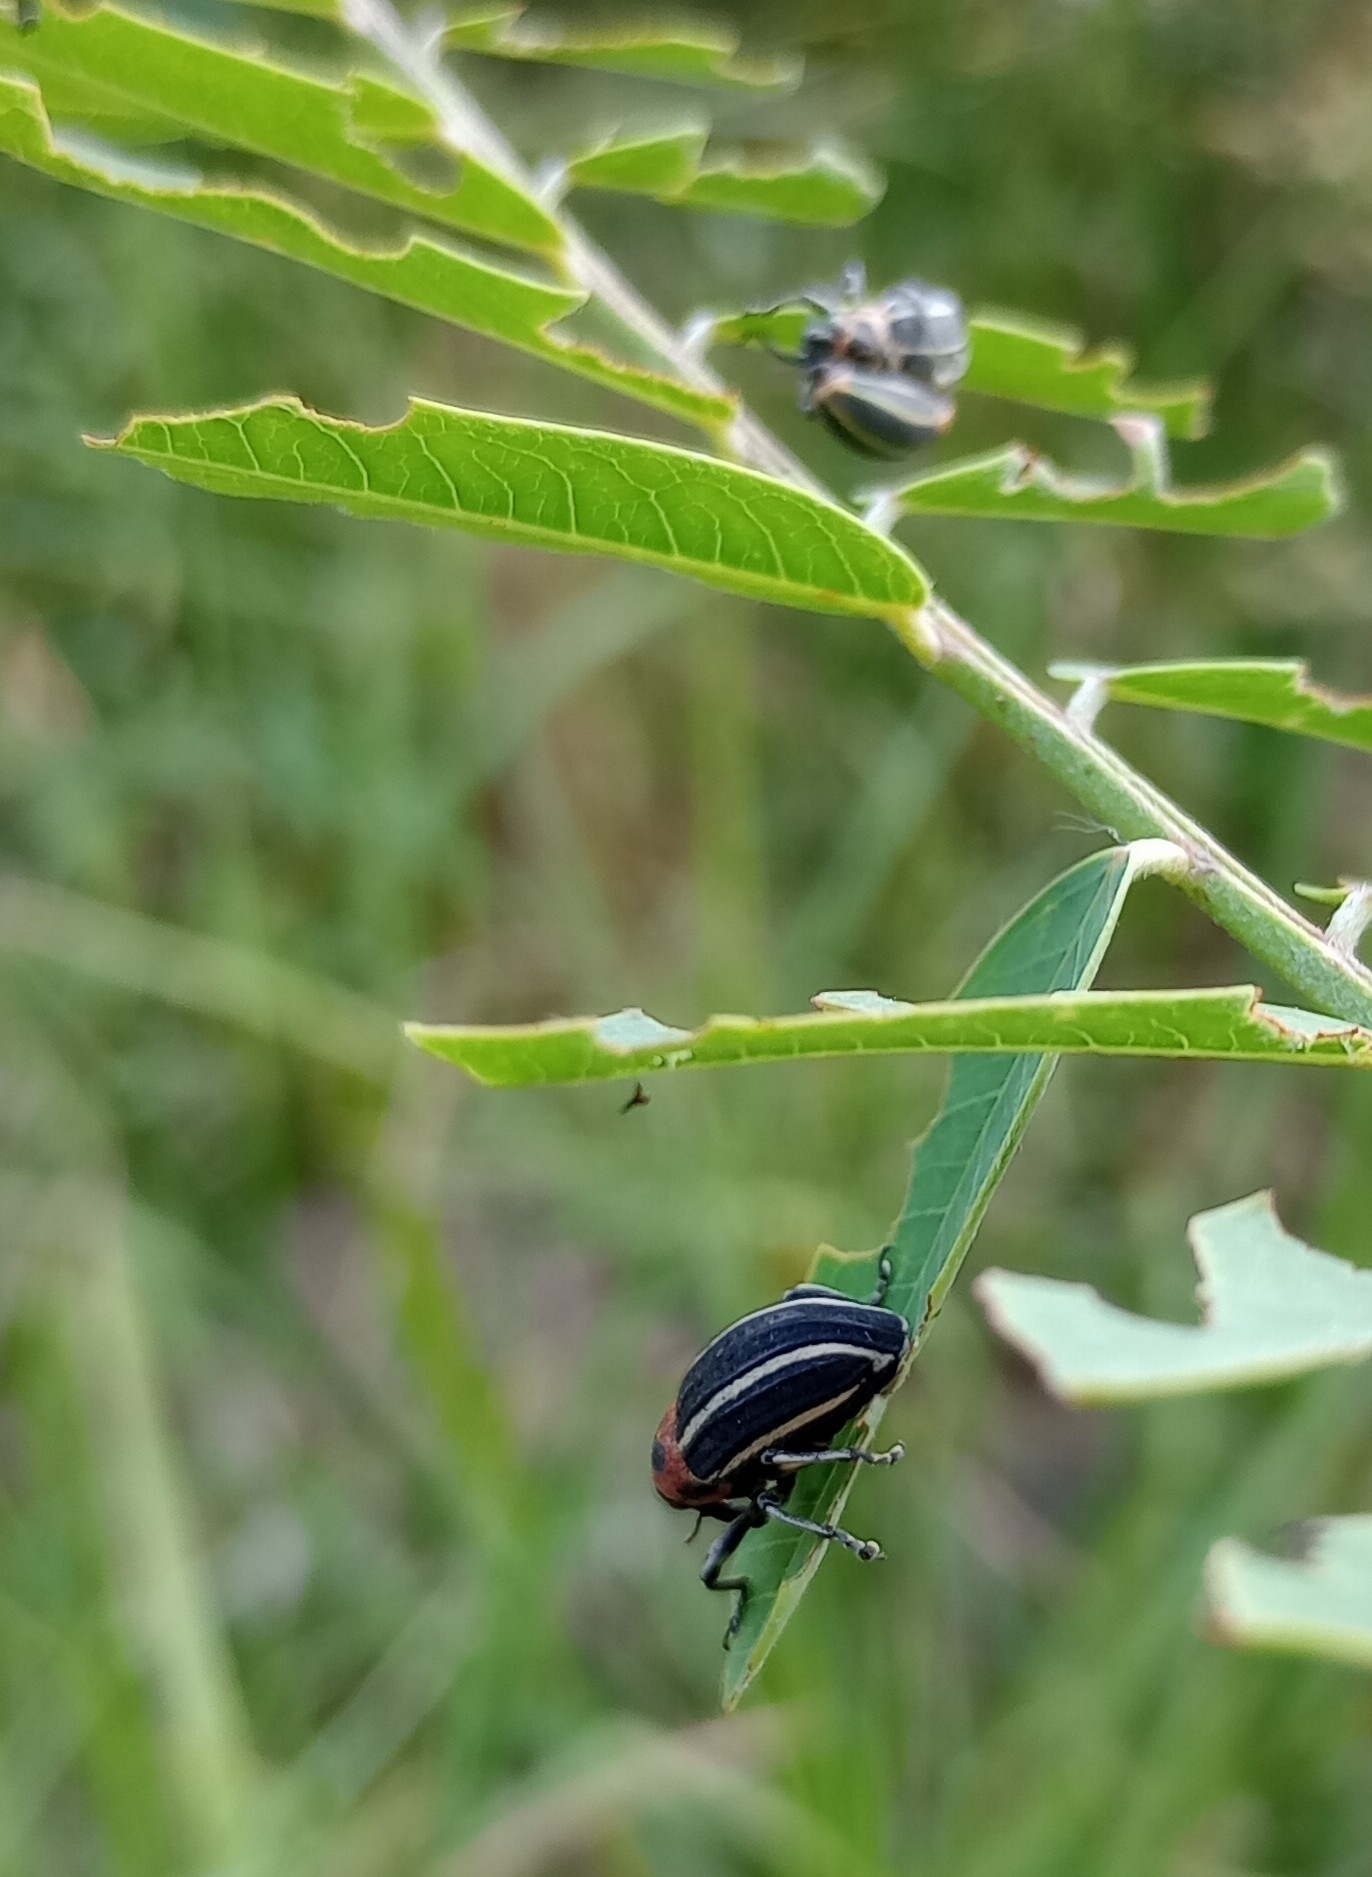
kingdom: Animalia
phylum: Arthropoda
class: Insecta
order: Coleoptera
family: Curculionidae
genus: Neodiplogrammus
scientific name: Neodiplogrammus
